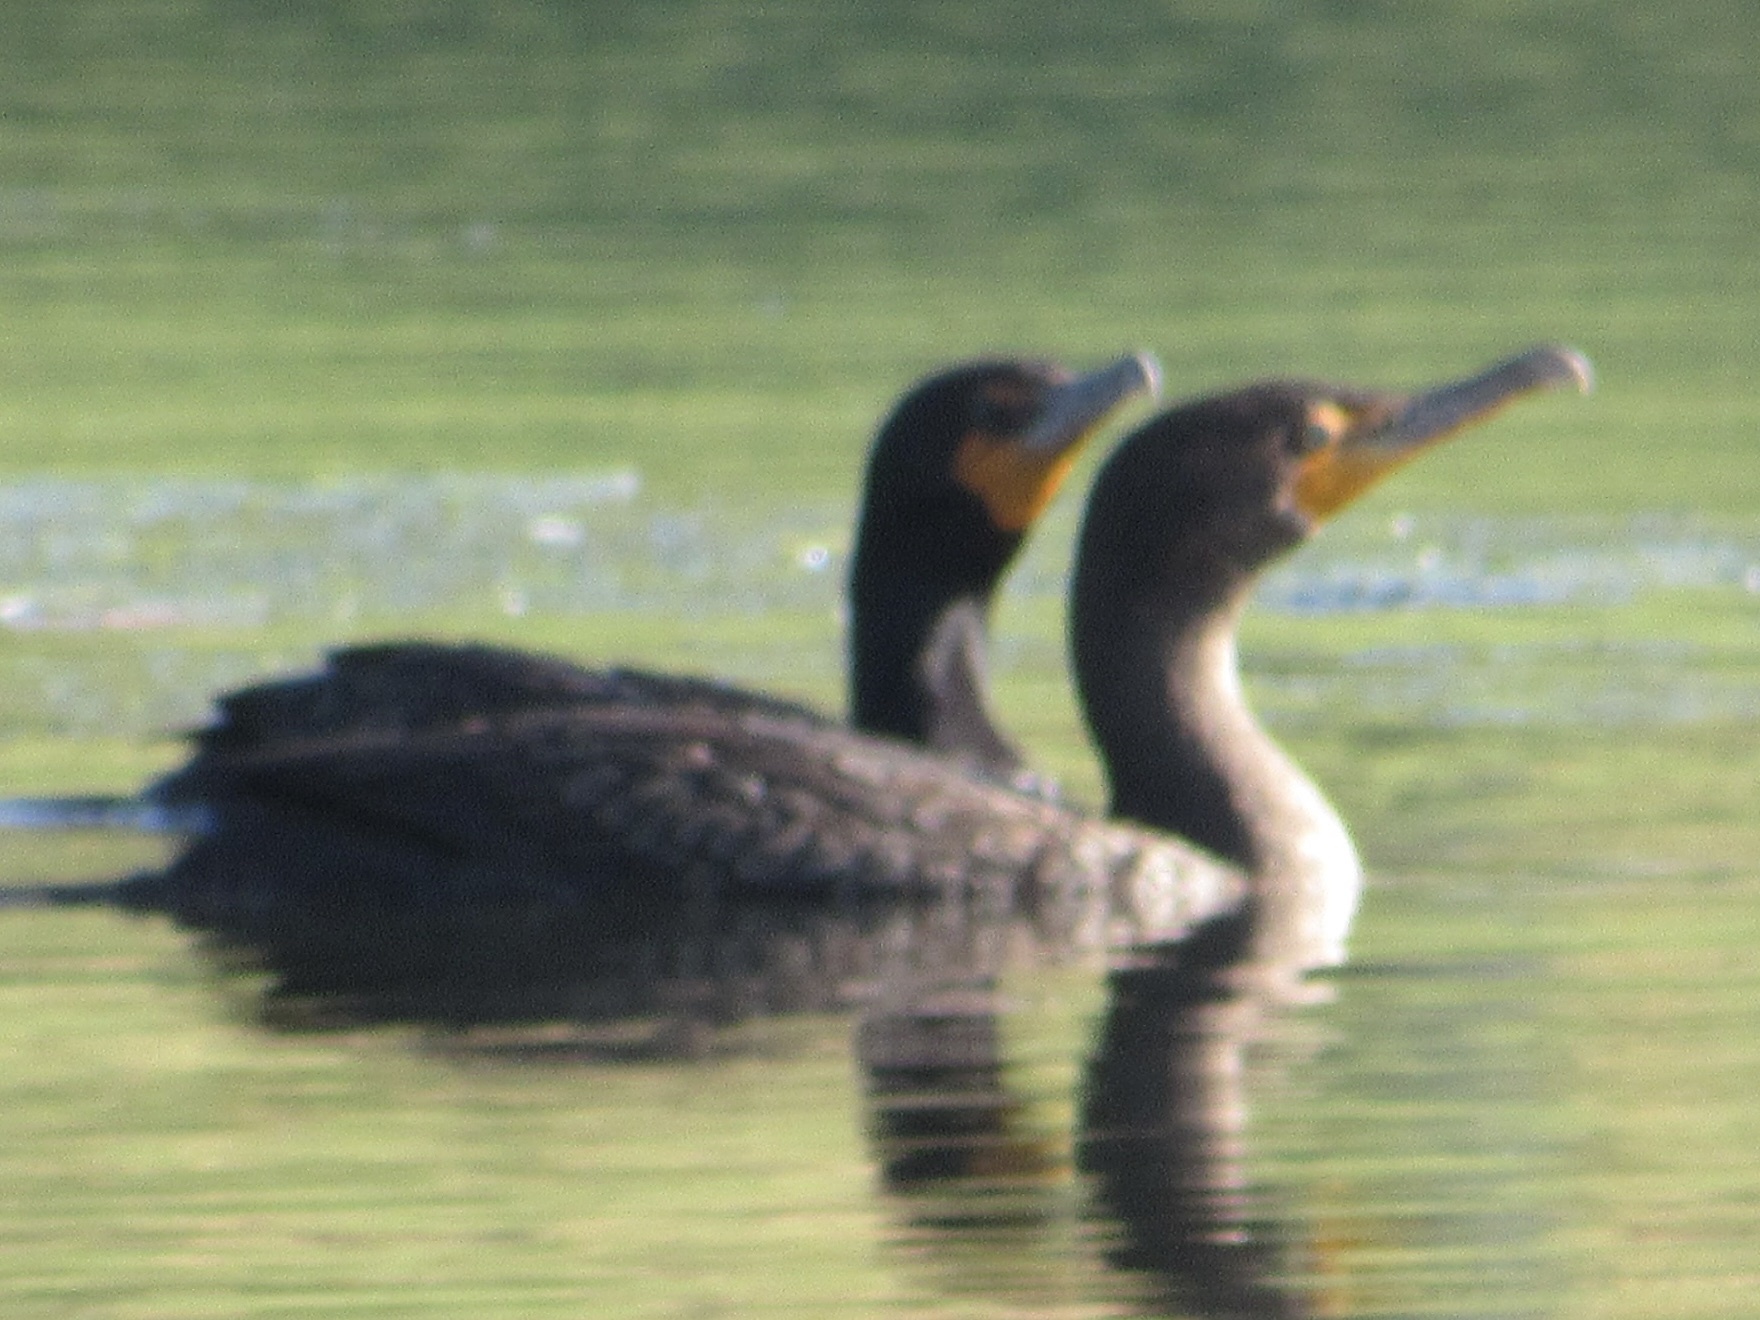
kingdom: Animalia
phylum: Chordata
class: Aves
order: Suliformes
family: Phalacrocoracidae
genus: Phalacrocorax
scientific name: Phalacrocorax auritus
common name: Double-crested cormorant
